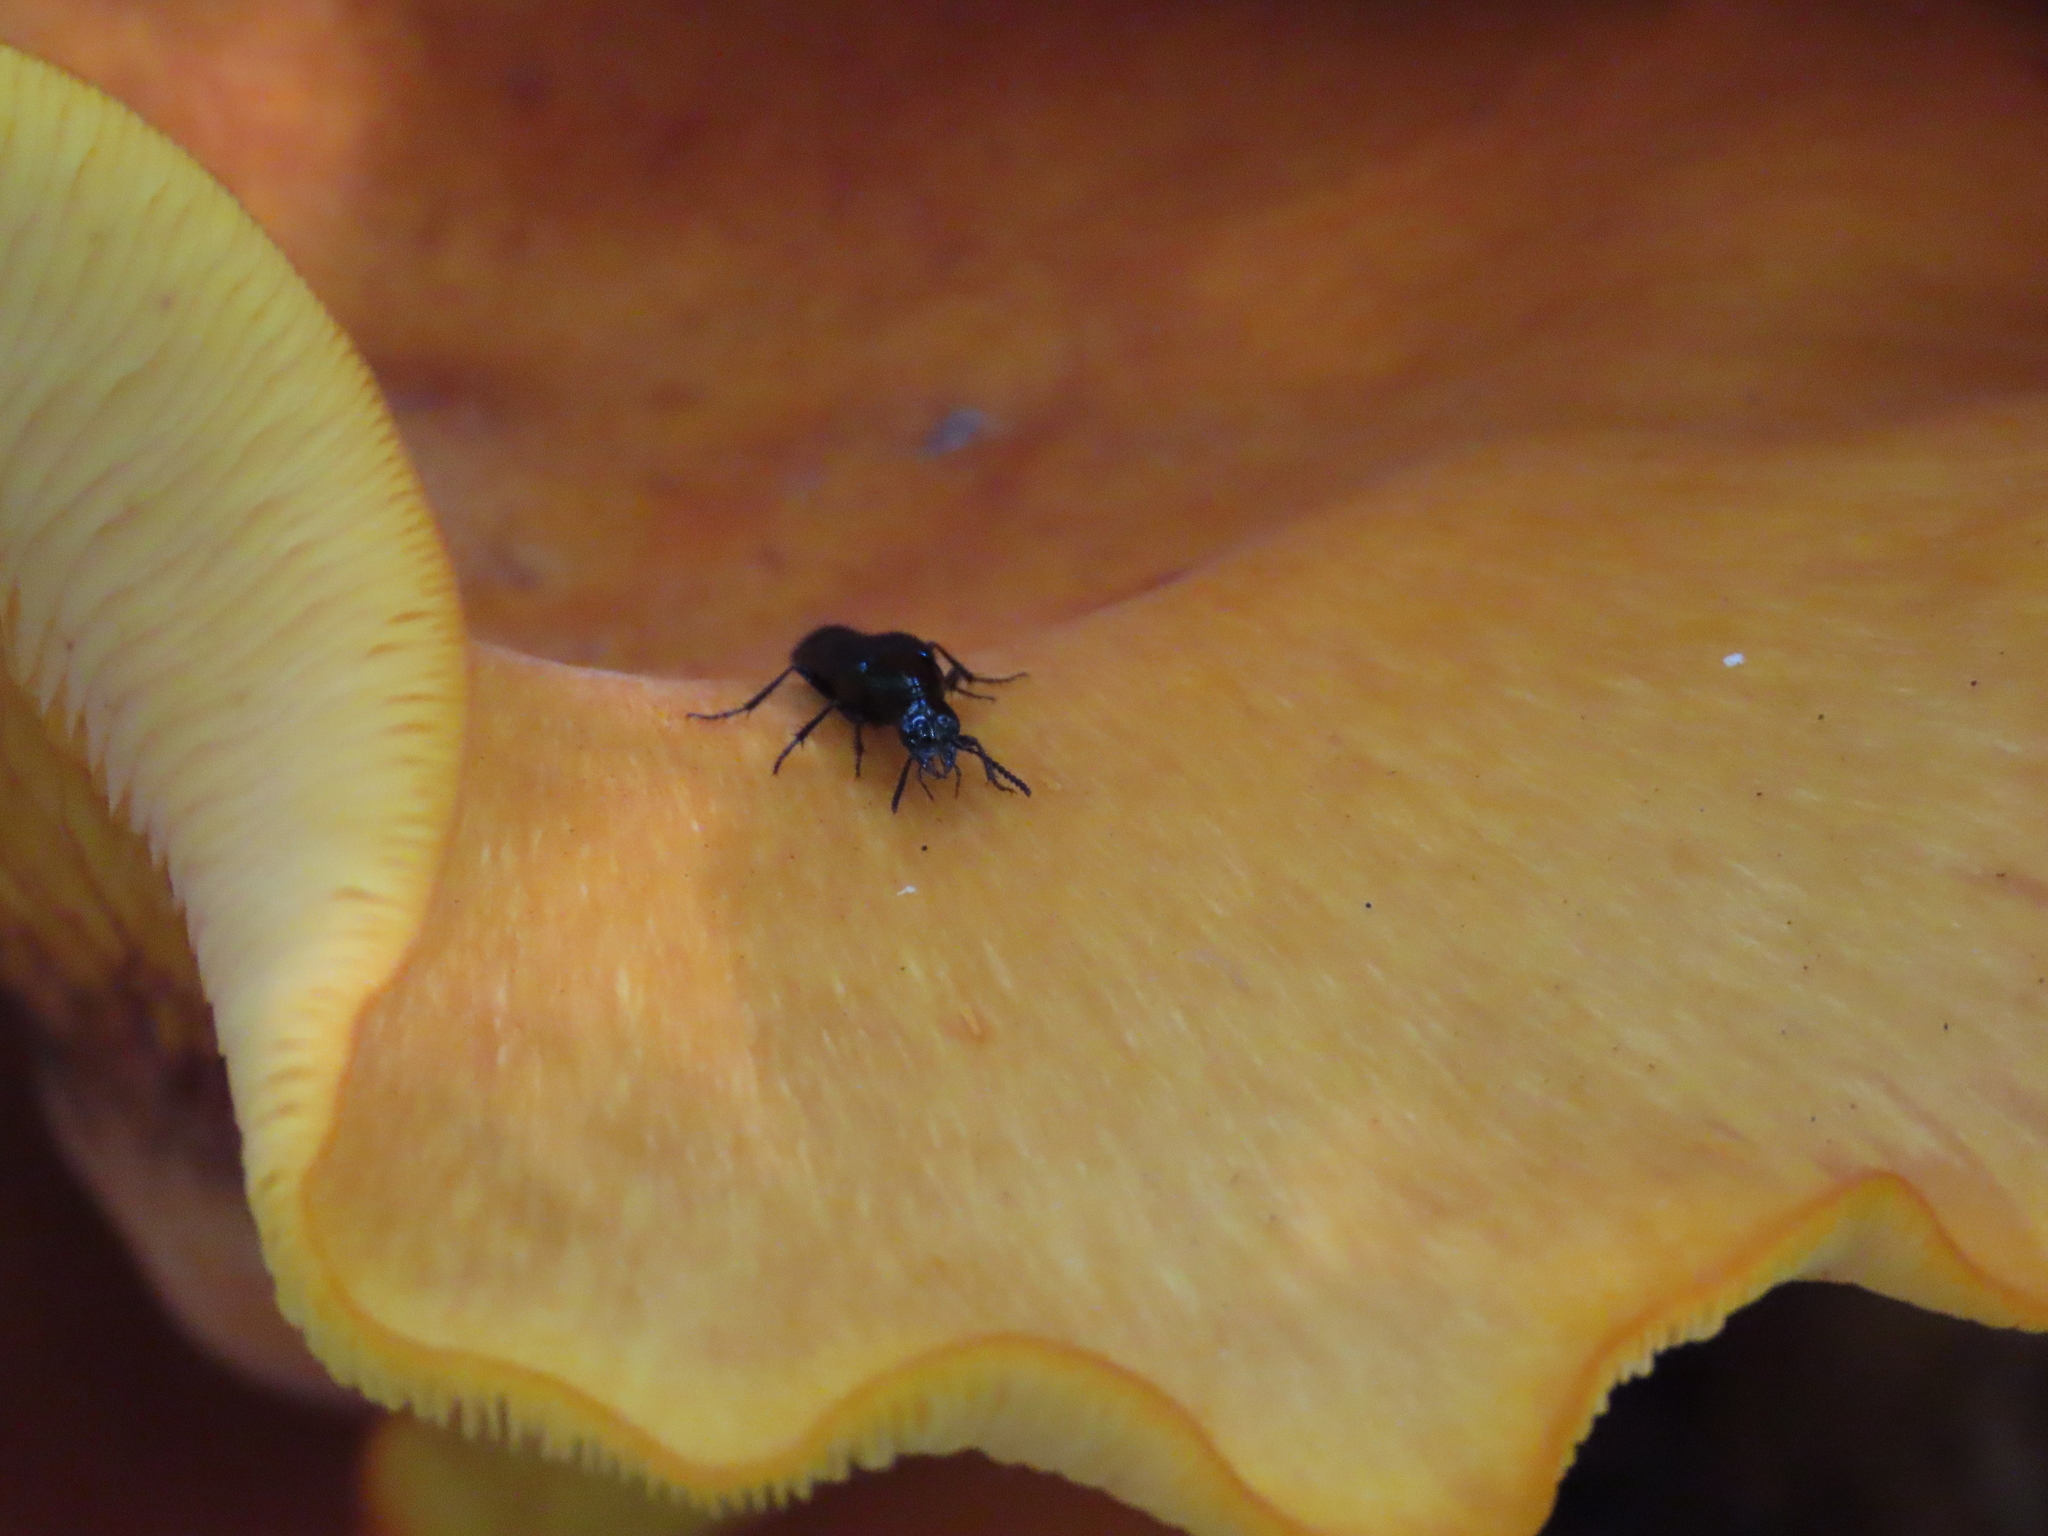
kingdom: Animalia
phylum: Arthropoda
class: Insecta
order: Coleoptera
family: Staphylinidae
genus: Philonthus
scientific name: Philonthus caeruleipennis
